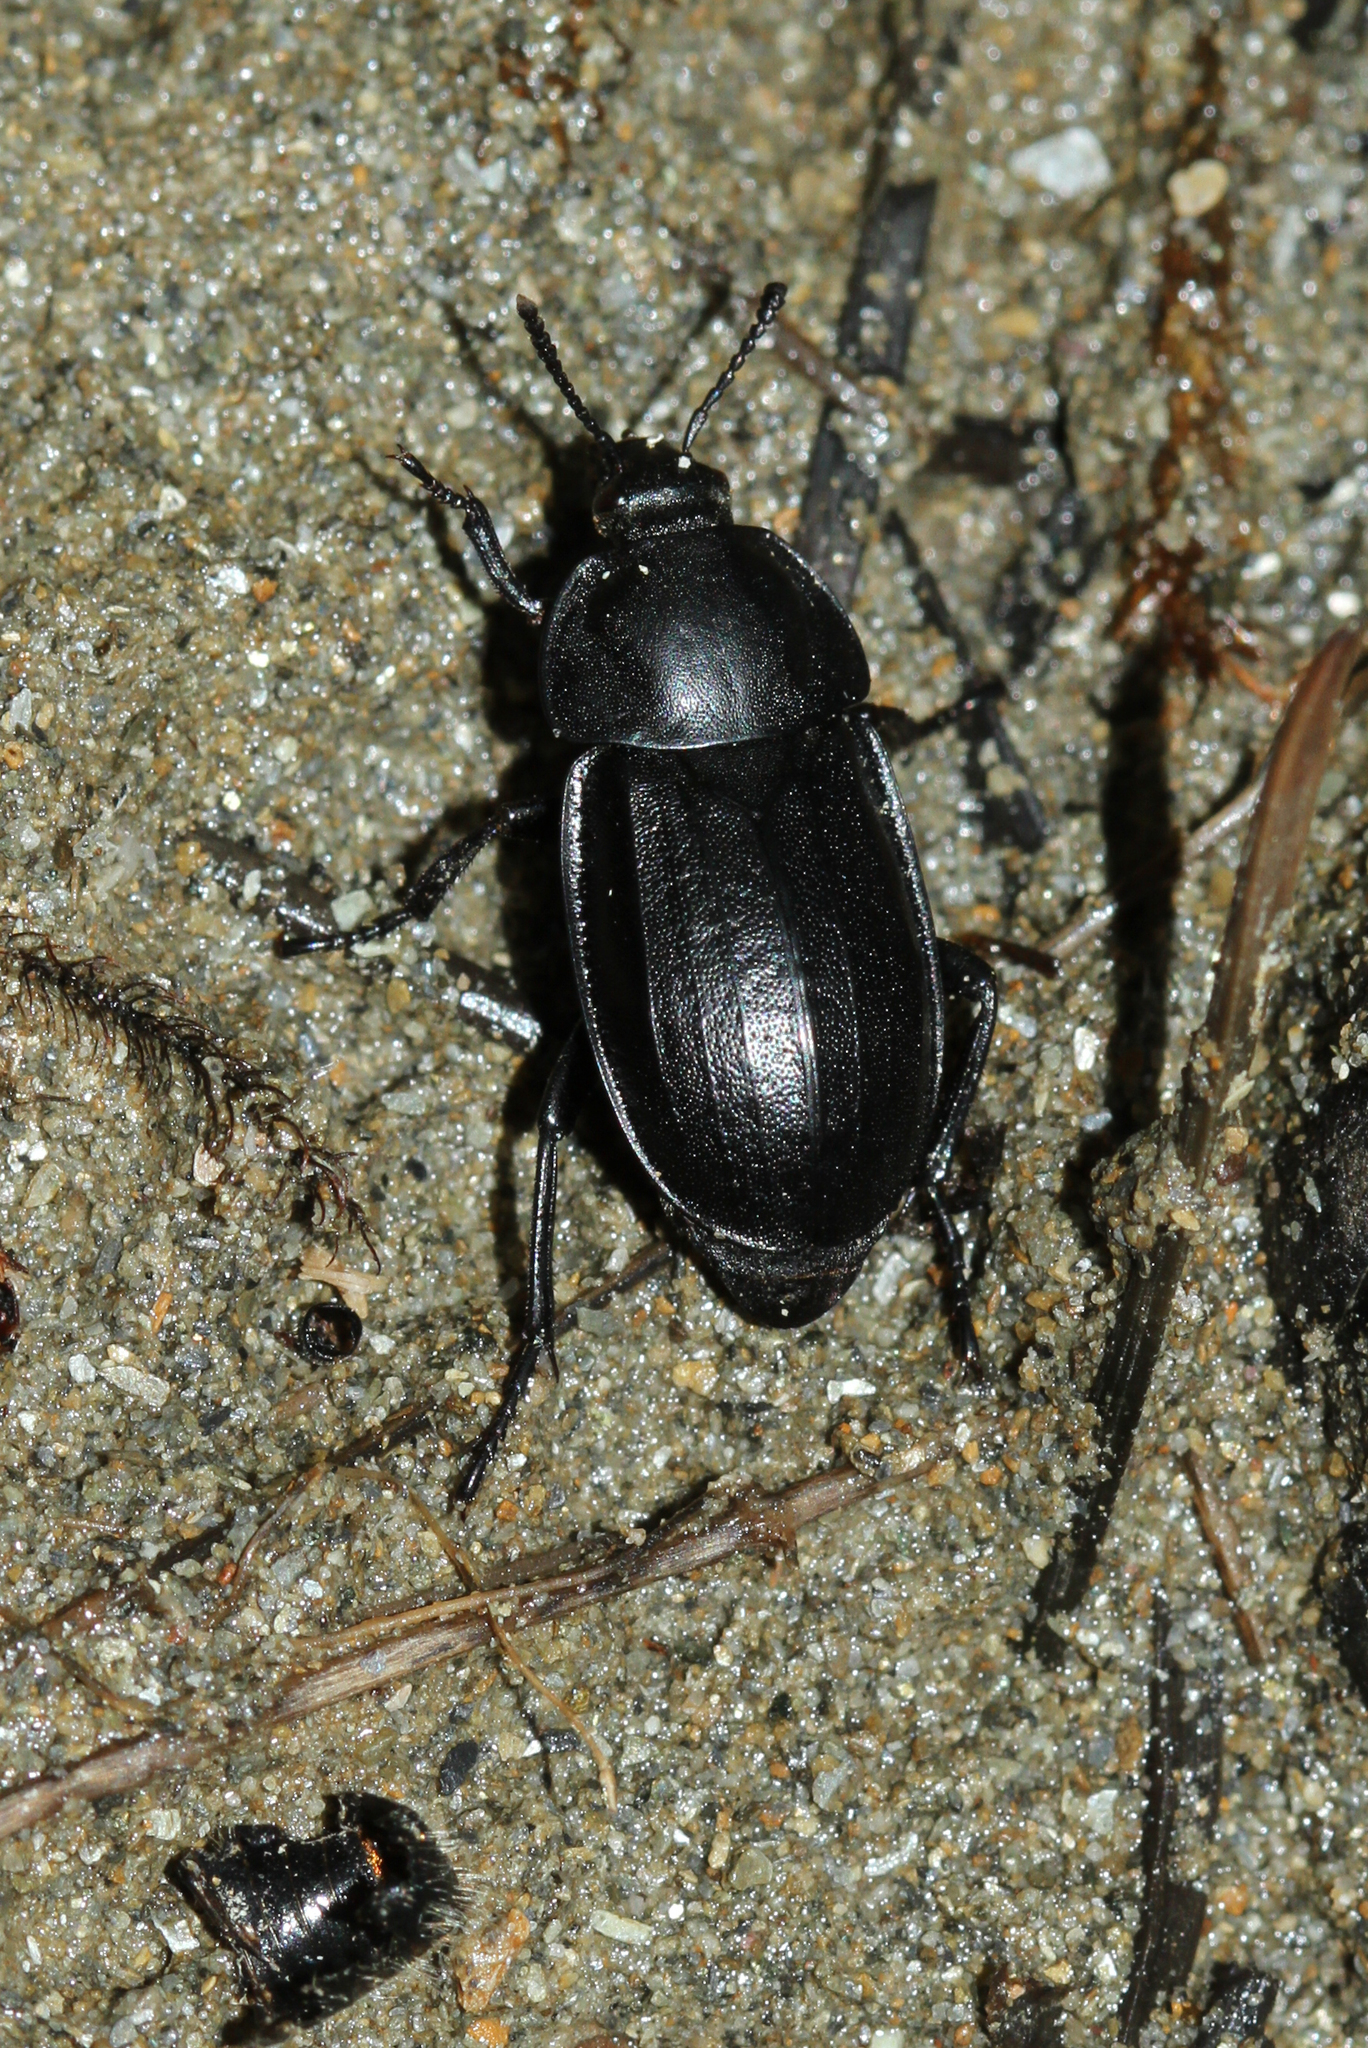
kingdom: Animalia
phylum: Arthropoda
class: Insecta
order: Coleoptera
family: Staphylinidae
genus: Silpha
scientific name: Silpha tyrolensis
